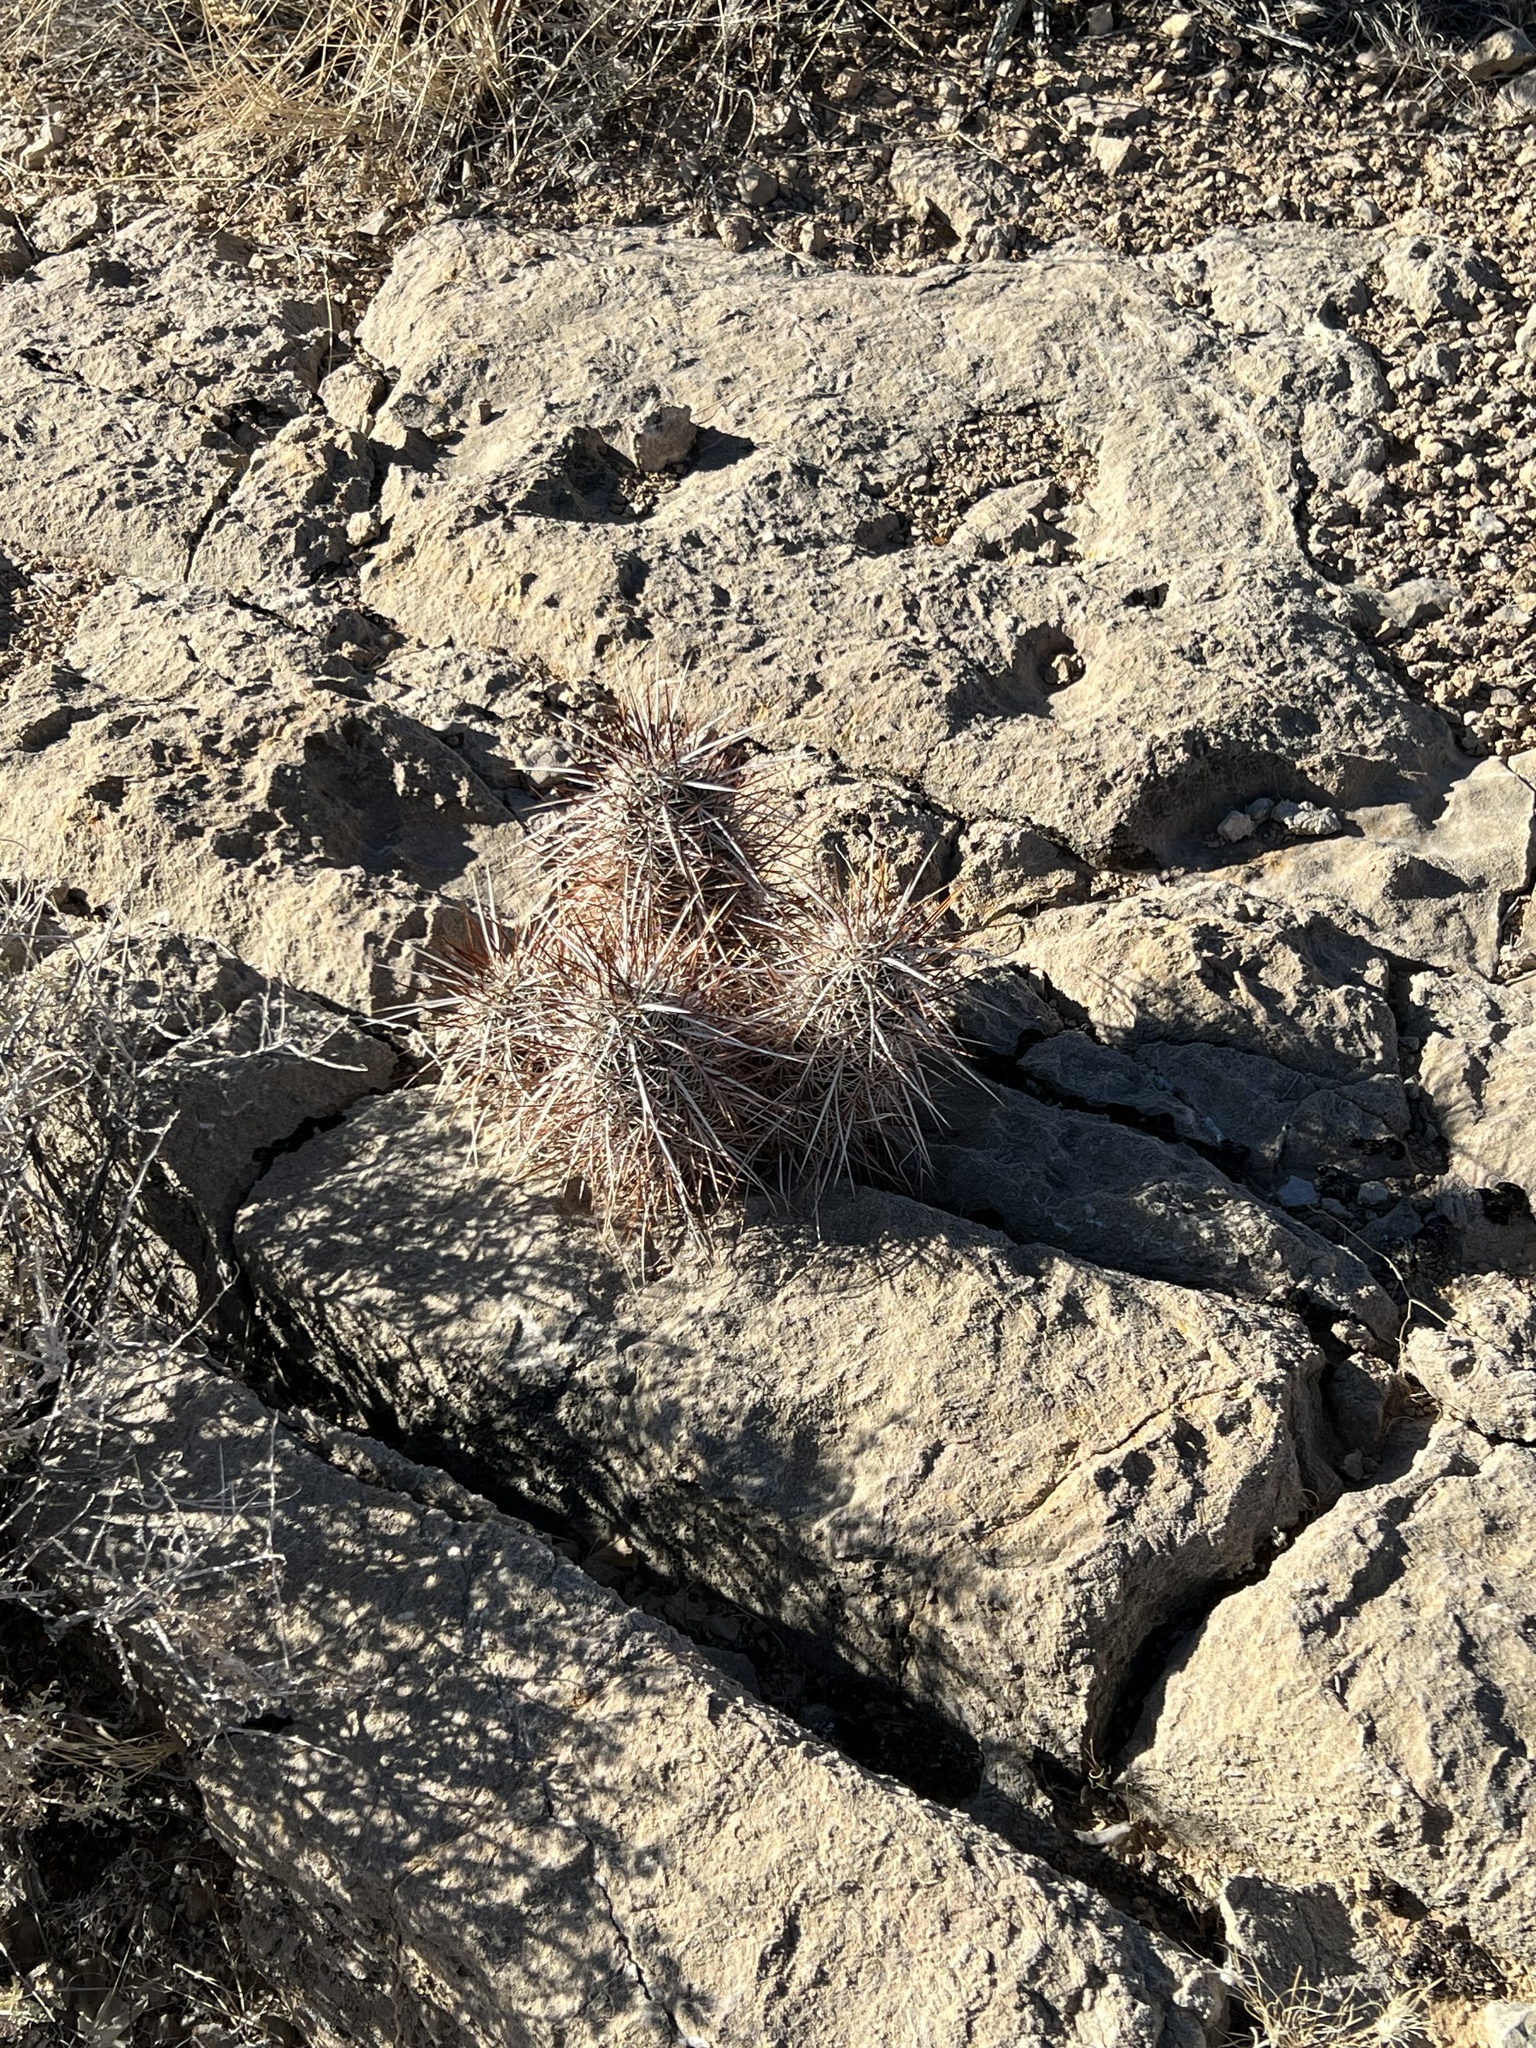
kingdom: Plantae
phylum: Tracheophyta
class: Magnoliopsida
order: Caryophyllales
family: Cactaceae
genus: Echinocereus
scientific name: Echinocereus engelmannii
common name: Engelmann's hedgehog cactus
